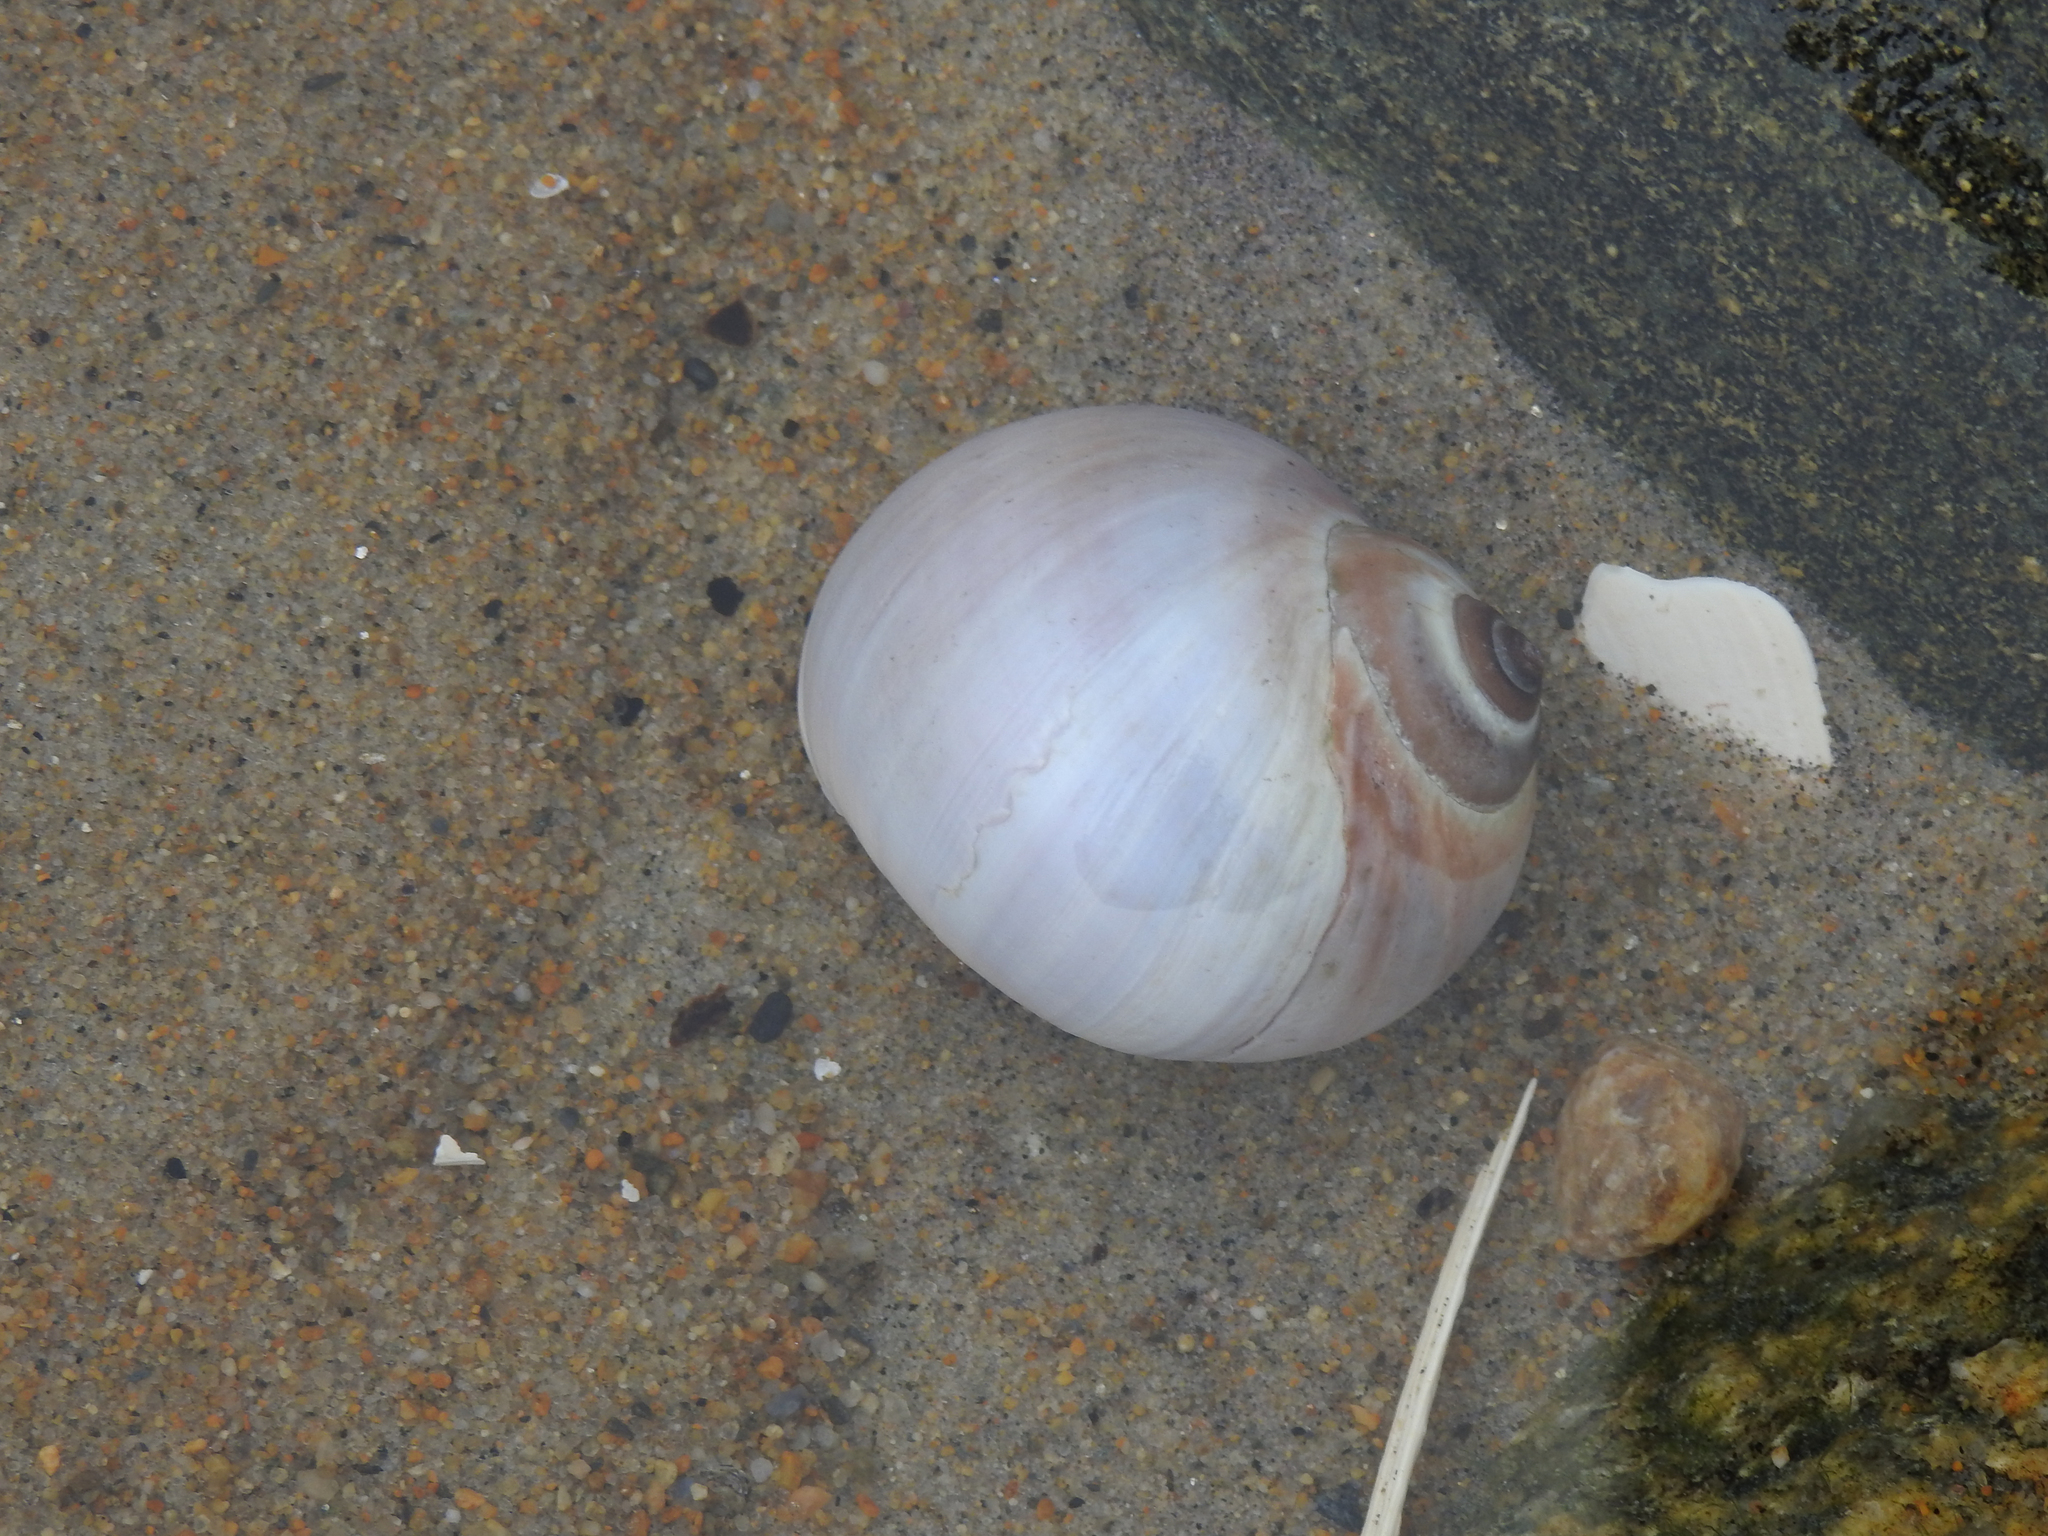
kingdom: Animalia
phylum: Mollusca
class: Gastropoda
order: Littorinimorpha
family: Naticidae
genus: Euspira
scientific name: Euspira heros
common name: Common northern moonsnail
